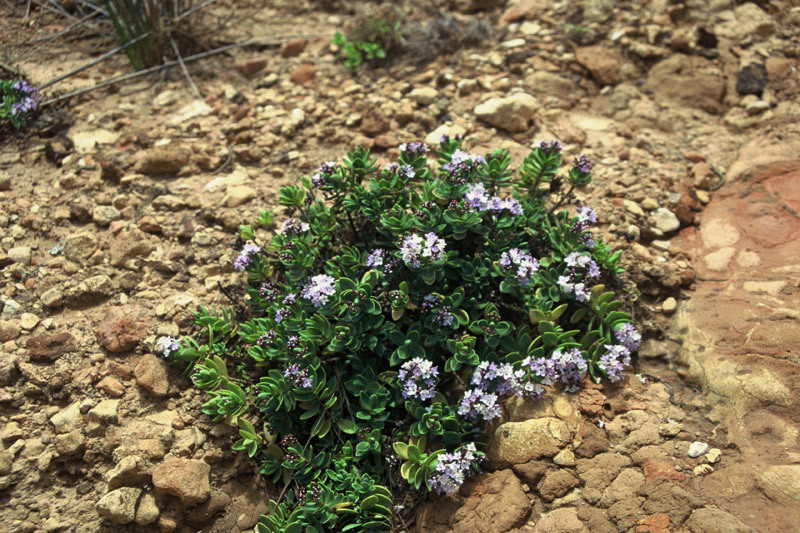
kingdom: Plantae
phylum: Tracheophyta
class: Magnoliopsida
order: Lamiales
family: Plantaginaceae
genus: Veronica
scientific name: Veronica insularis
